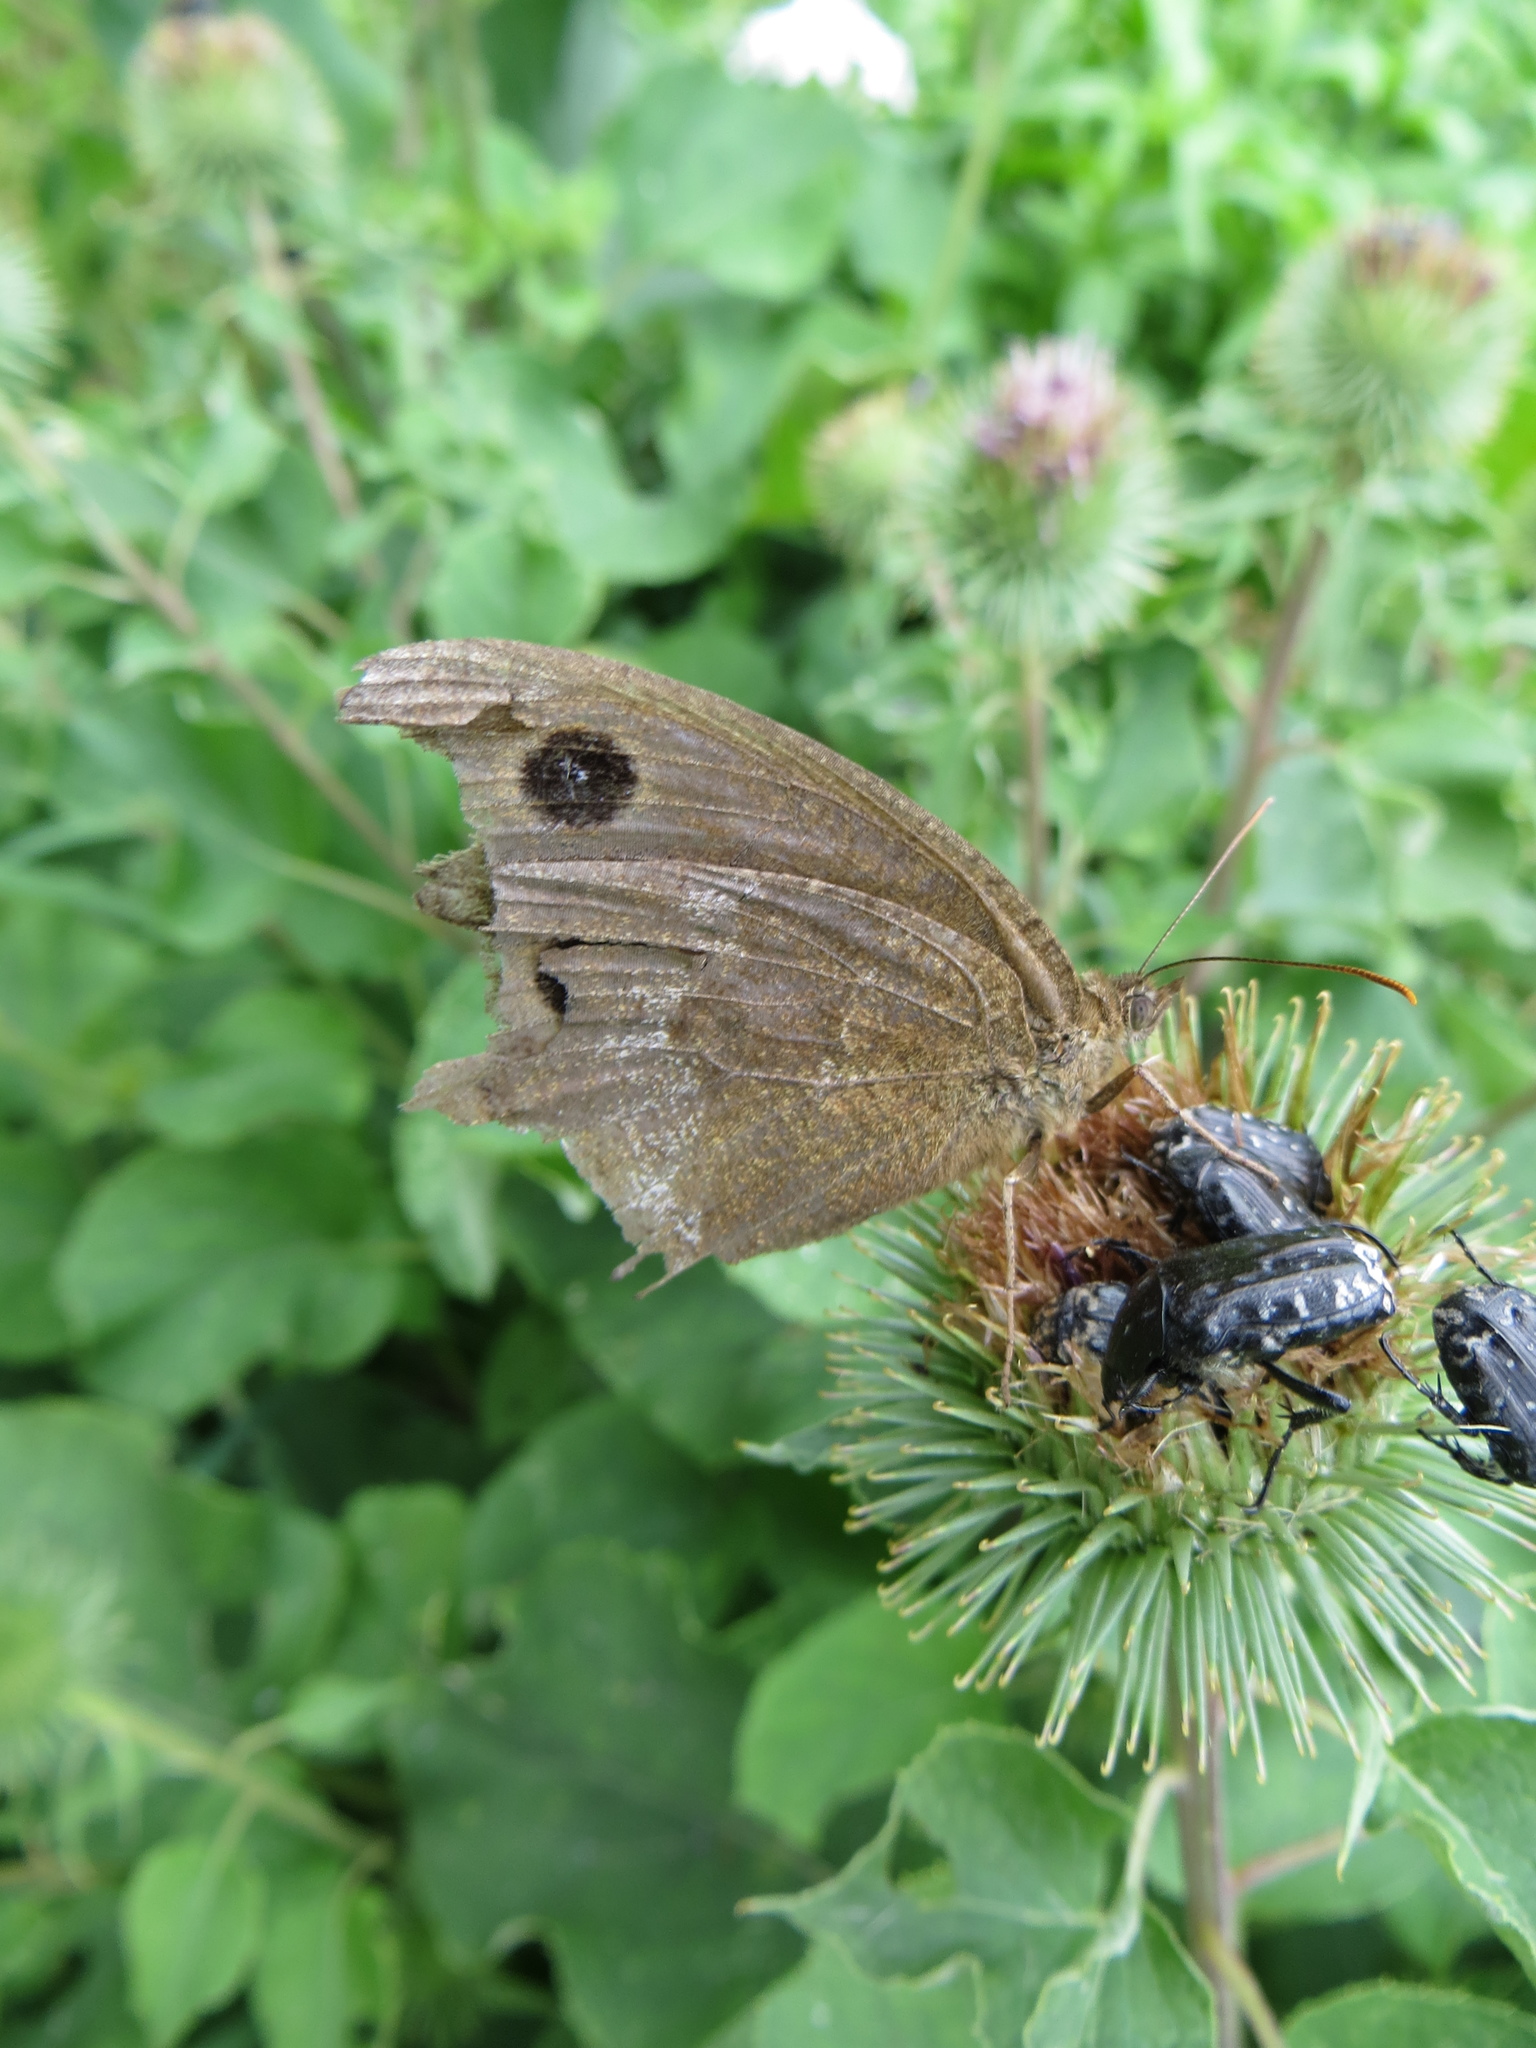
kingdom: Animalia
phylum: Arthropoda
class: Insecta
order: Lepidoptera
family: Nymphalidae
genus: Minois
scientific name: Minois dryas
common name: Dryad
